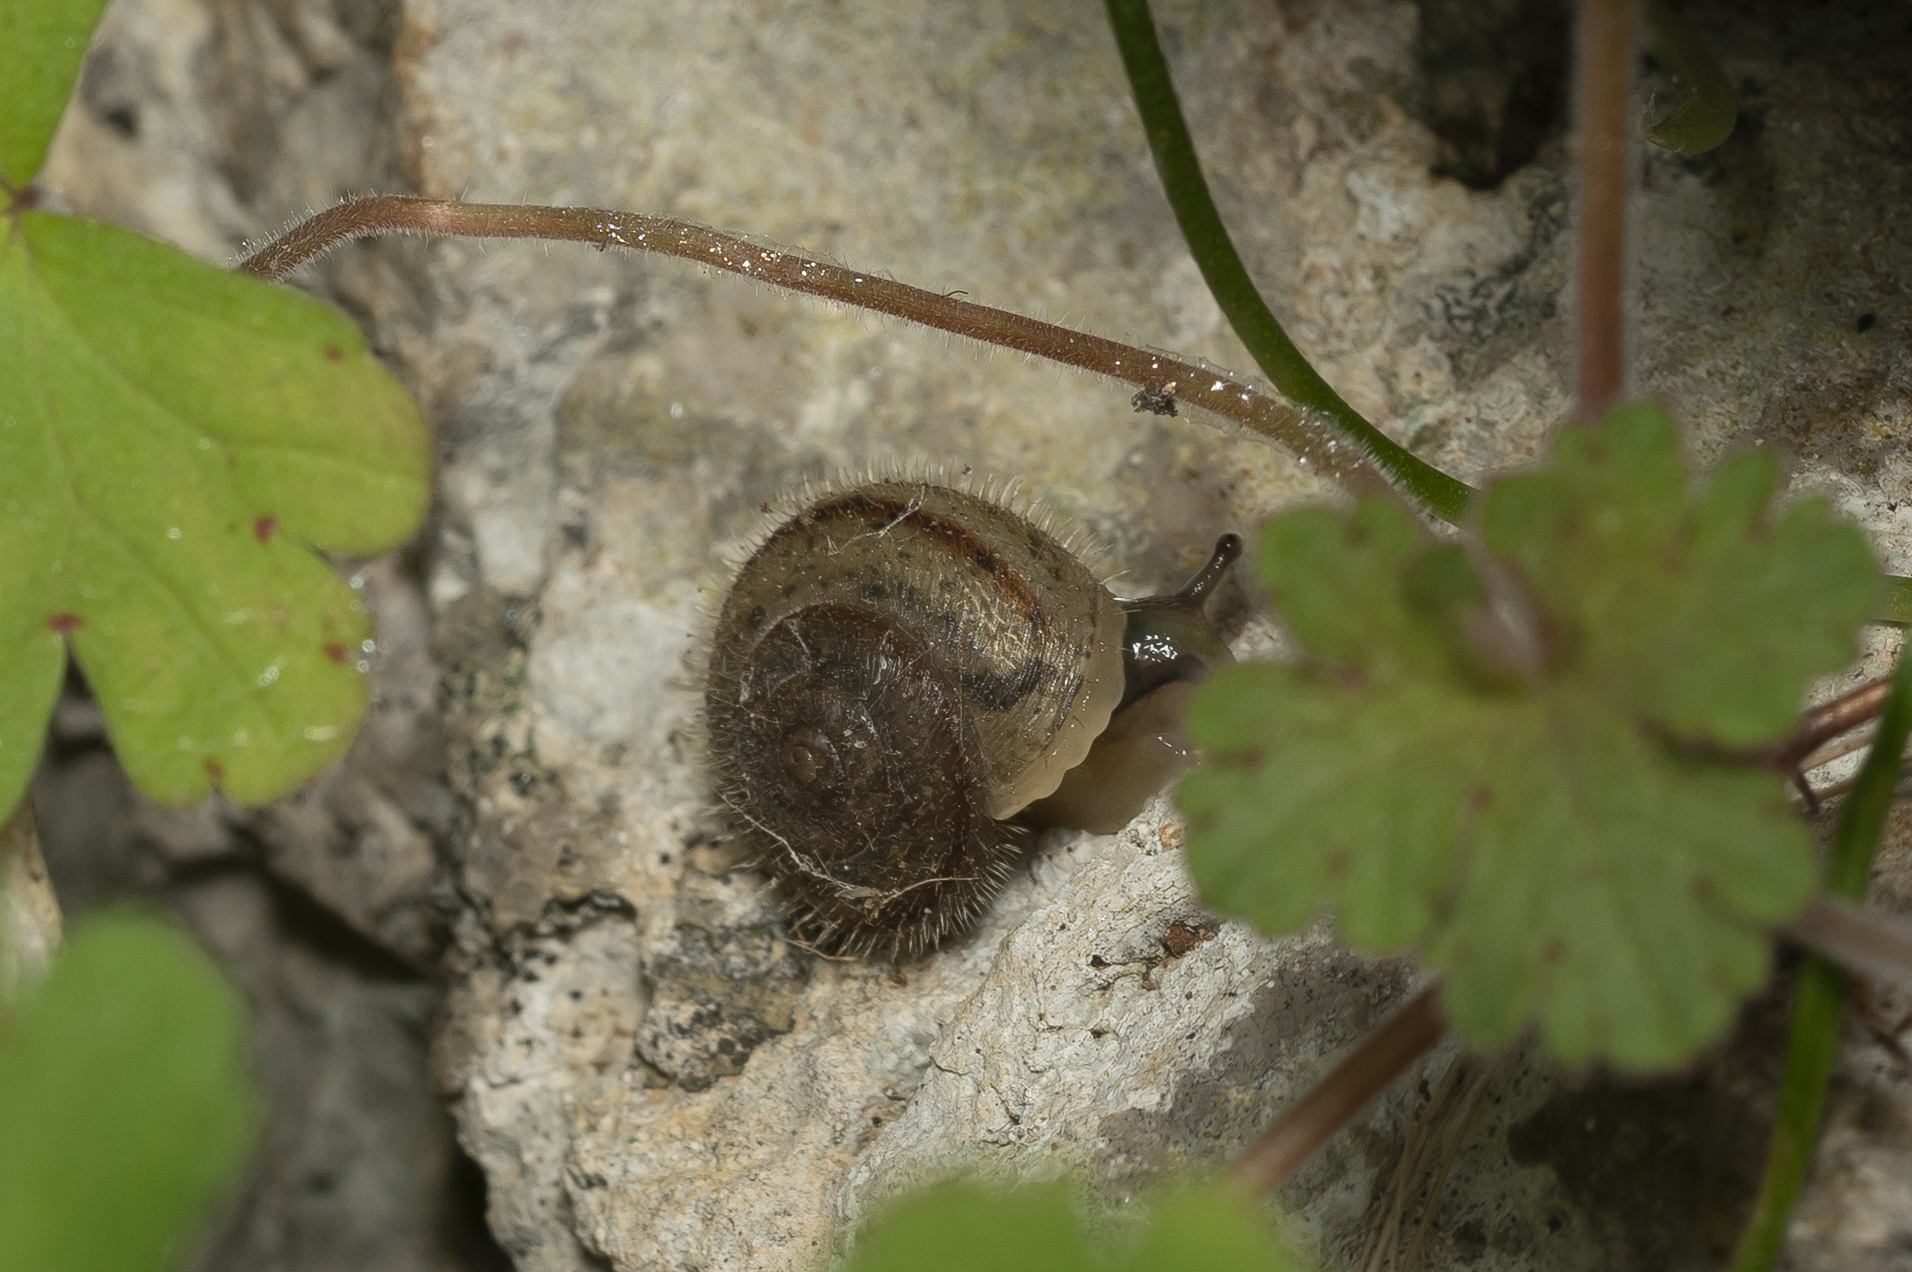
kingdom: Animalia
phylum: Mollusca
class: Gastropoda
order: Stylommatophora
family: Hygromiidae
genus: Metafruticicola
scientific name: Metafruticicola pellita
